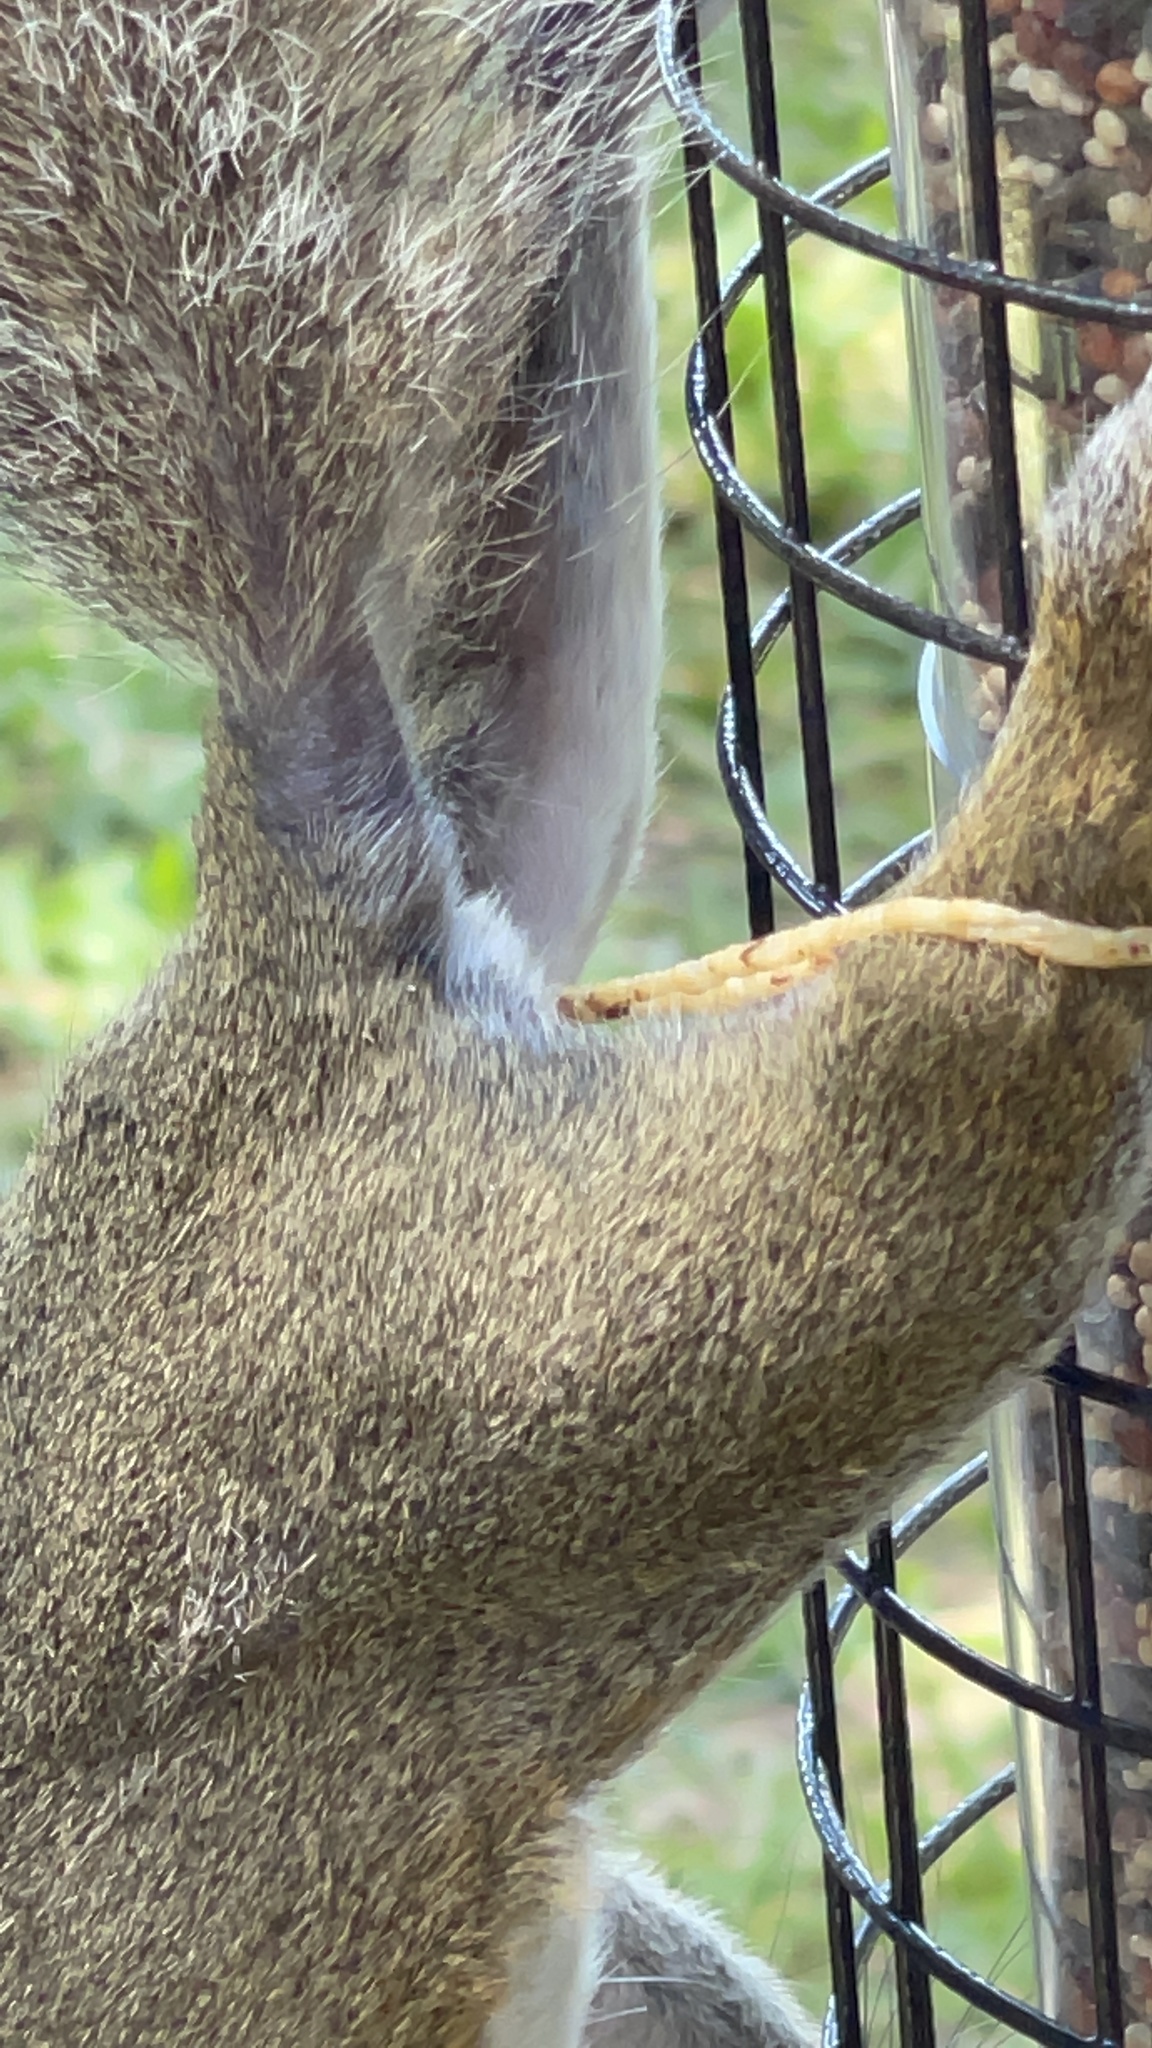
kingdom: Animalia
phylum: Chordata
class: Mammalia
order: Rodentia
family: Sciuridae
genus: Sciurus
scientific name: Sciurus carolinensis
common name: Eastern gray squirrel
